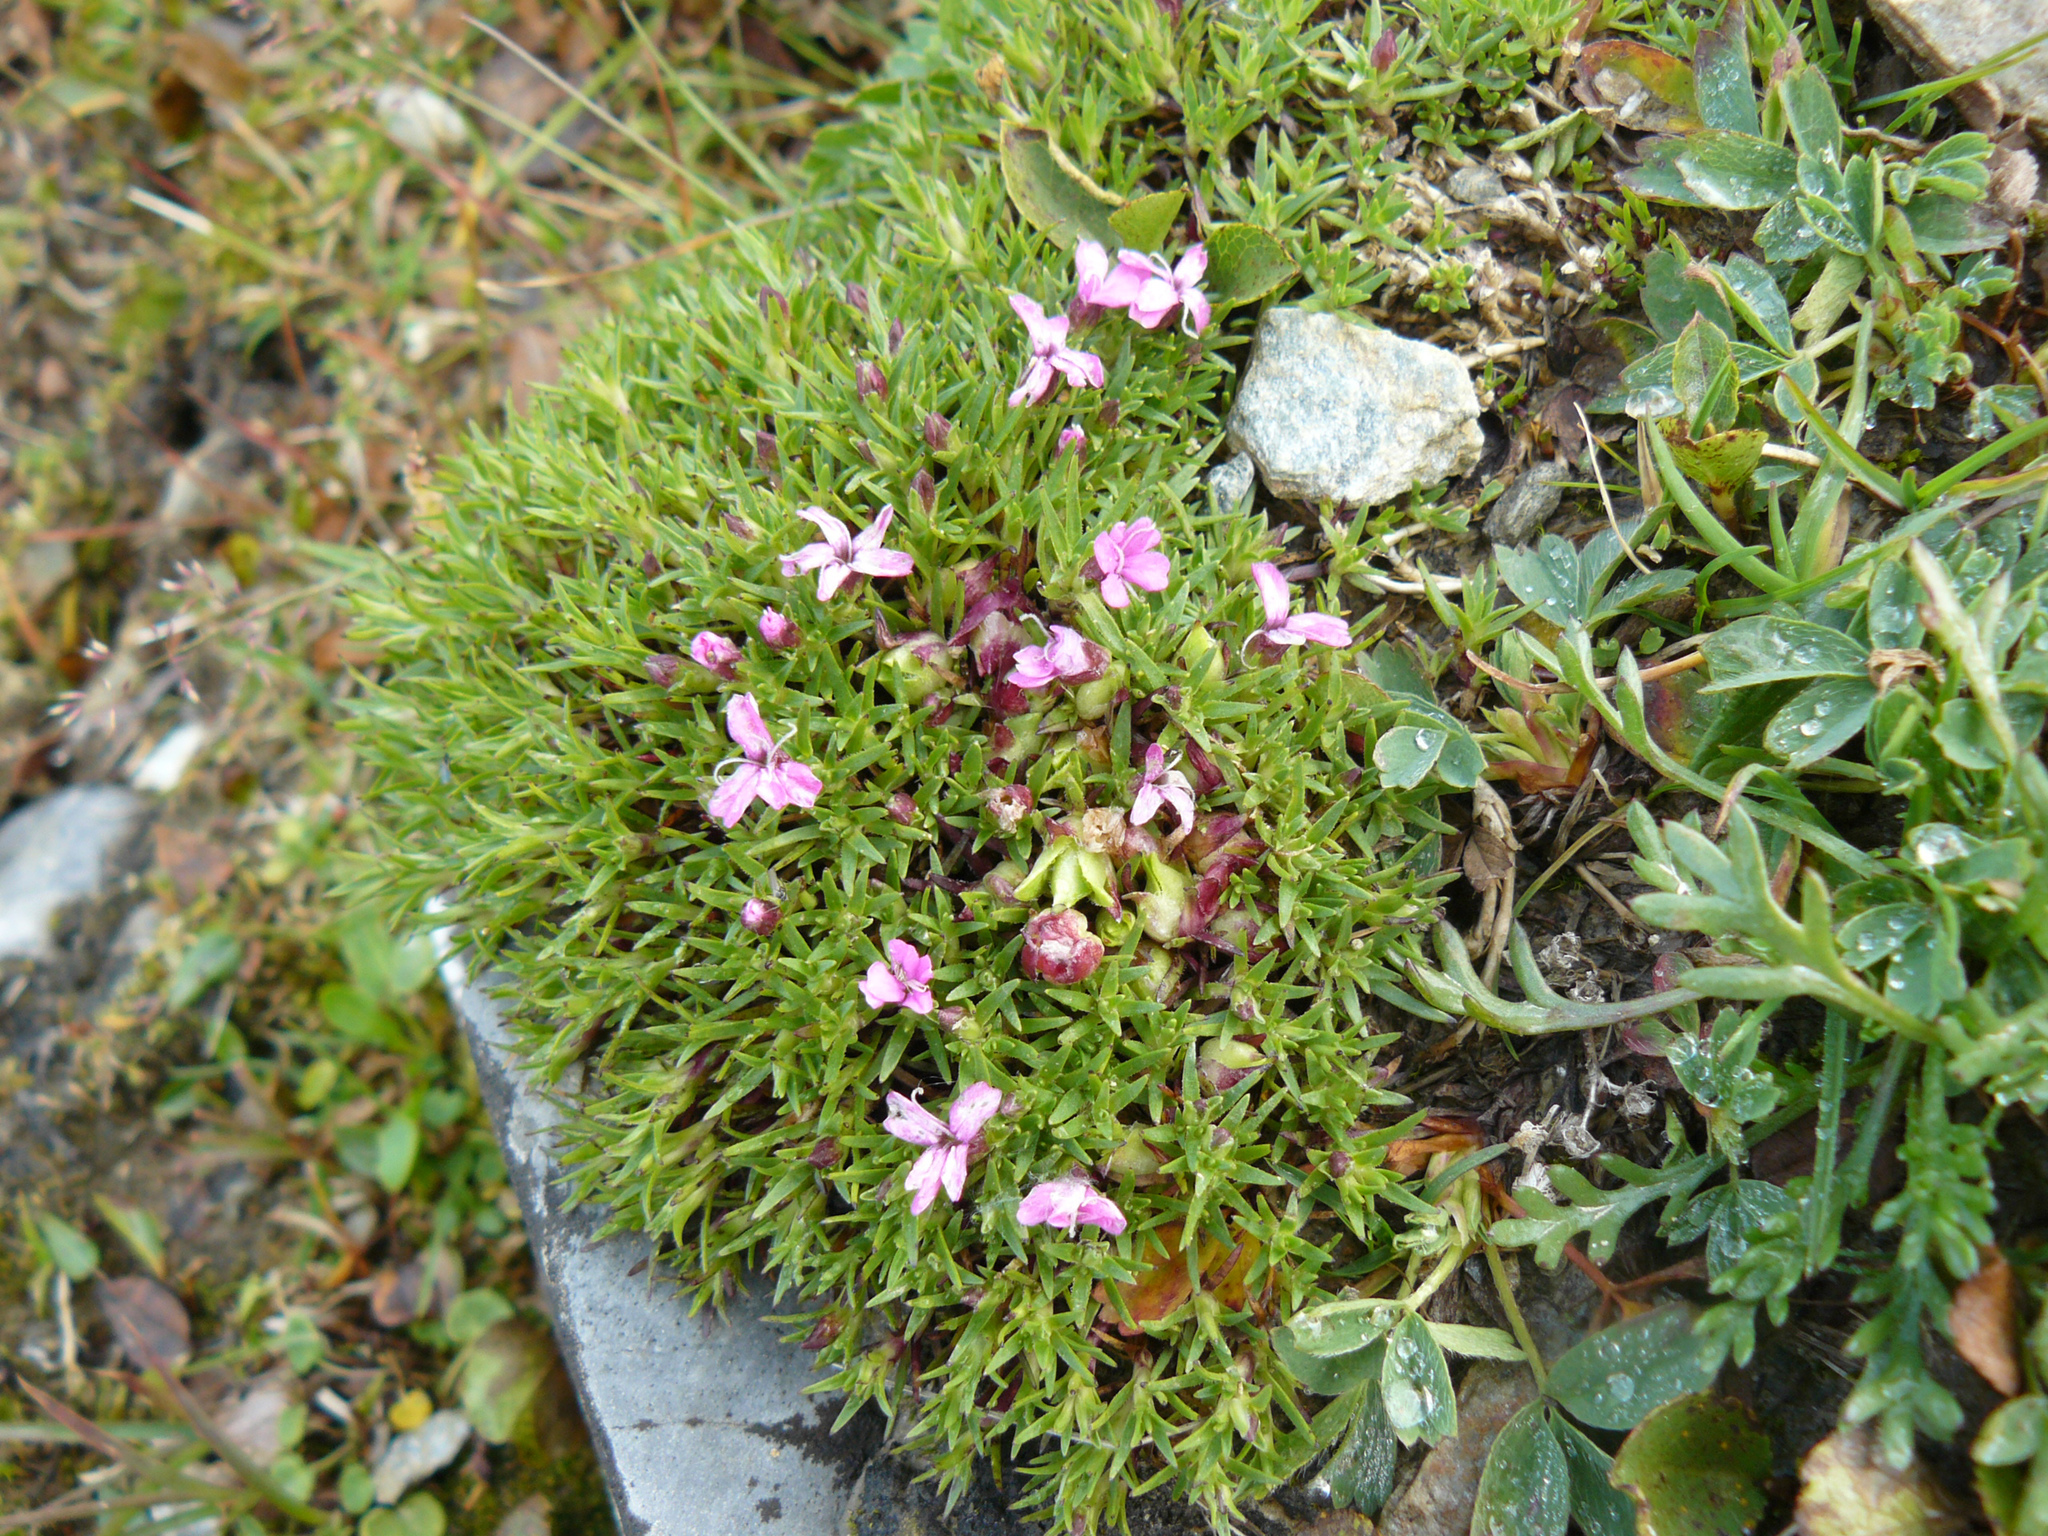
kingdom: Plantae
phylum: Tracheophyta
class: Magnoliopsida
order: Caryophyllales
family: Caryophyllaceae
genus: Silene
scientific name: Silene acaulis
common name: Moss campion
